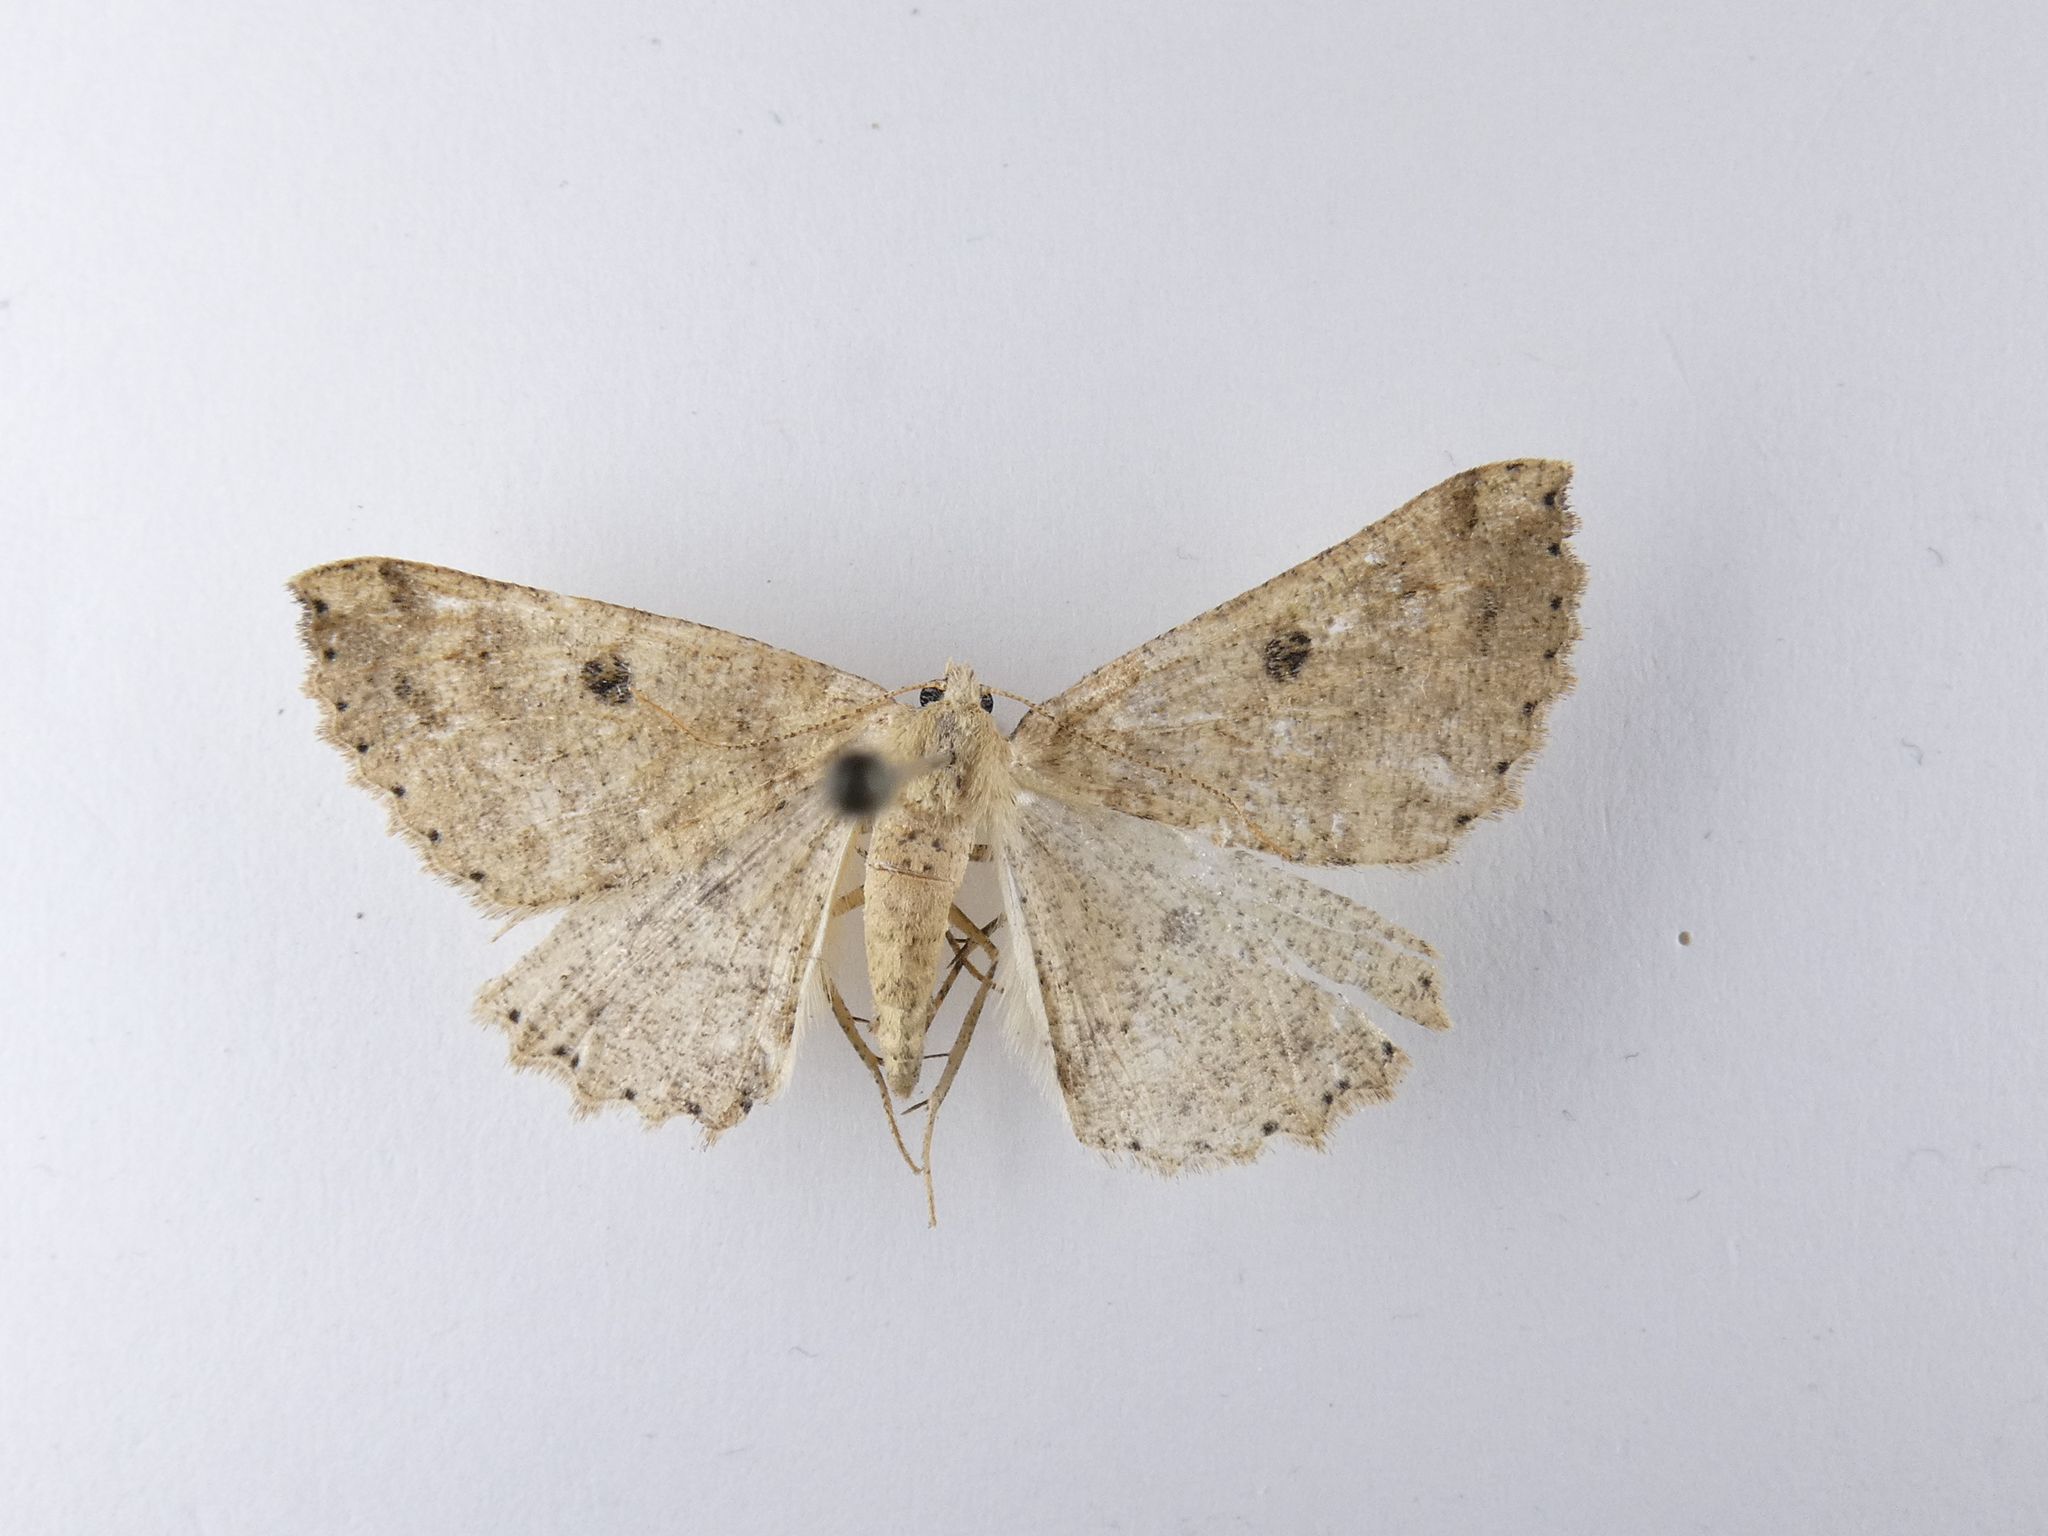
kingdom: Animalia
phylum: Arthropoda
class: Insecta
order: Lepidoptera
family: Geometridae
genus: Cleora
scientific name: Cleora scriptaria
